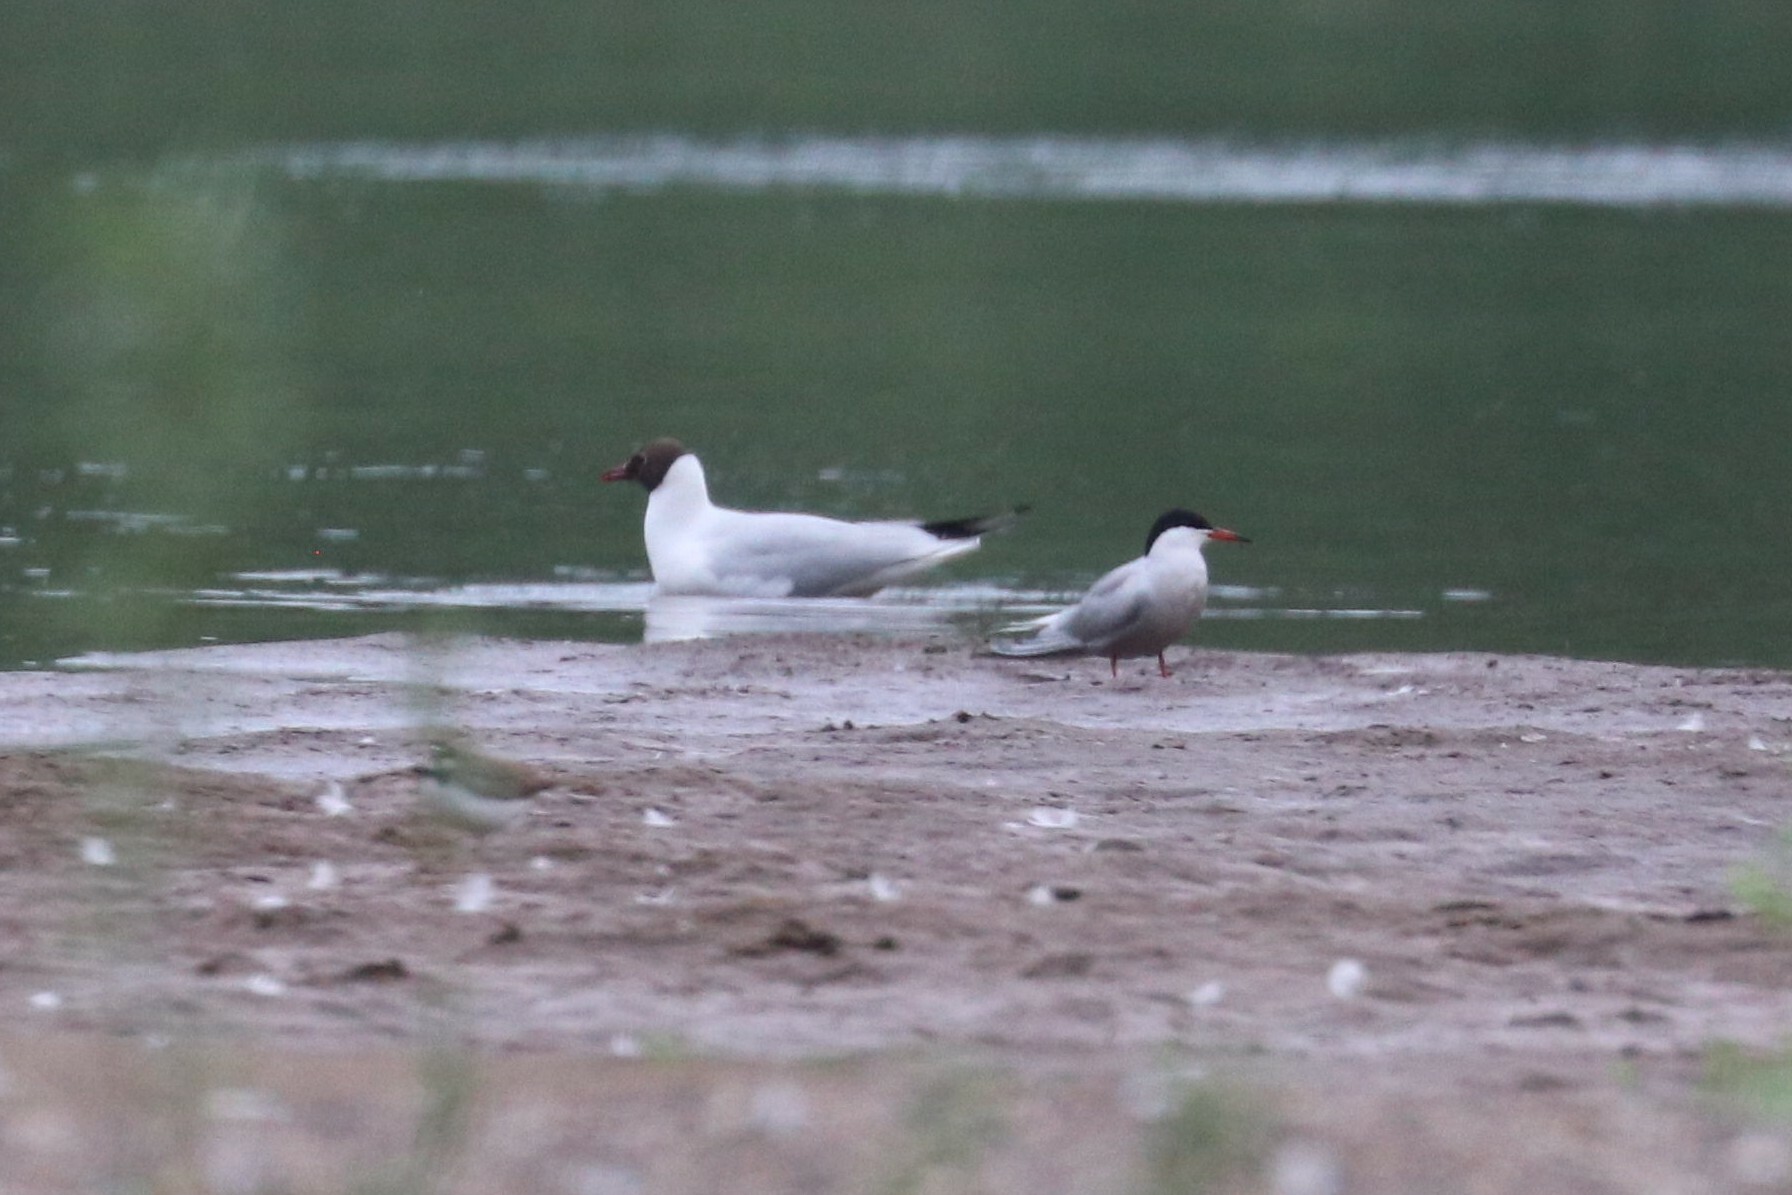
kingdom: Animalia
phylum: Chordata
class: Aves
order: Charadriiformes
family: Laridae
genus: Sterna
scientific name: Sterna hirundo
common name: Common tern
